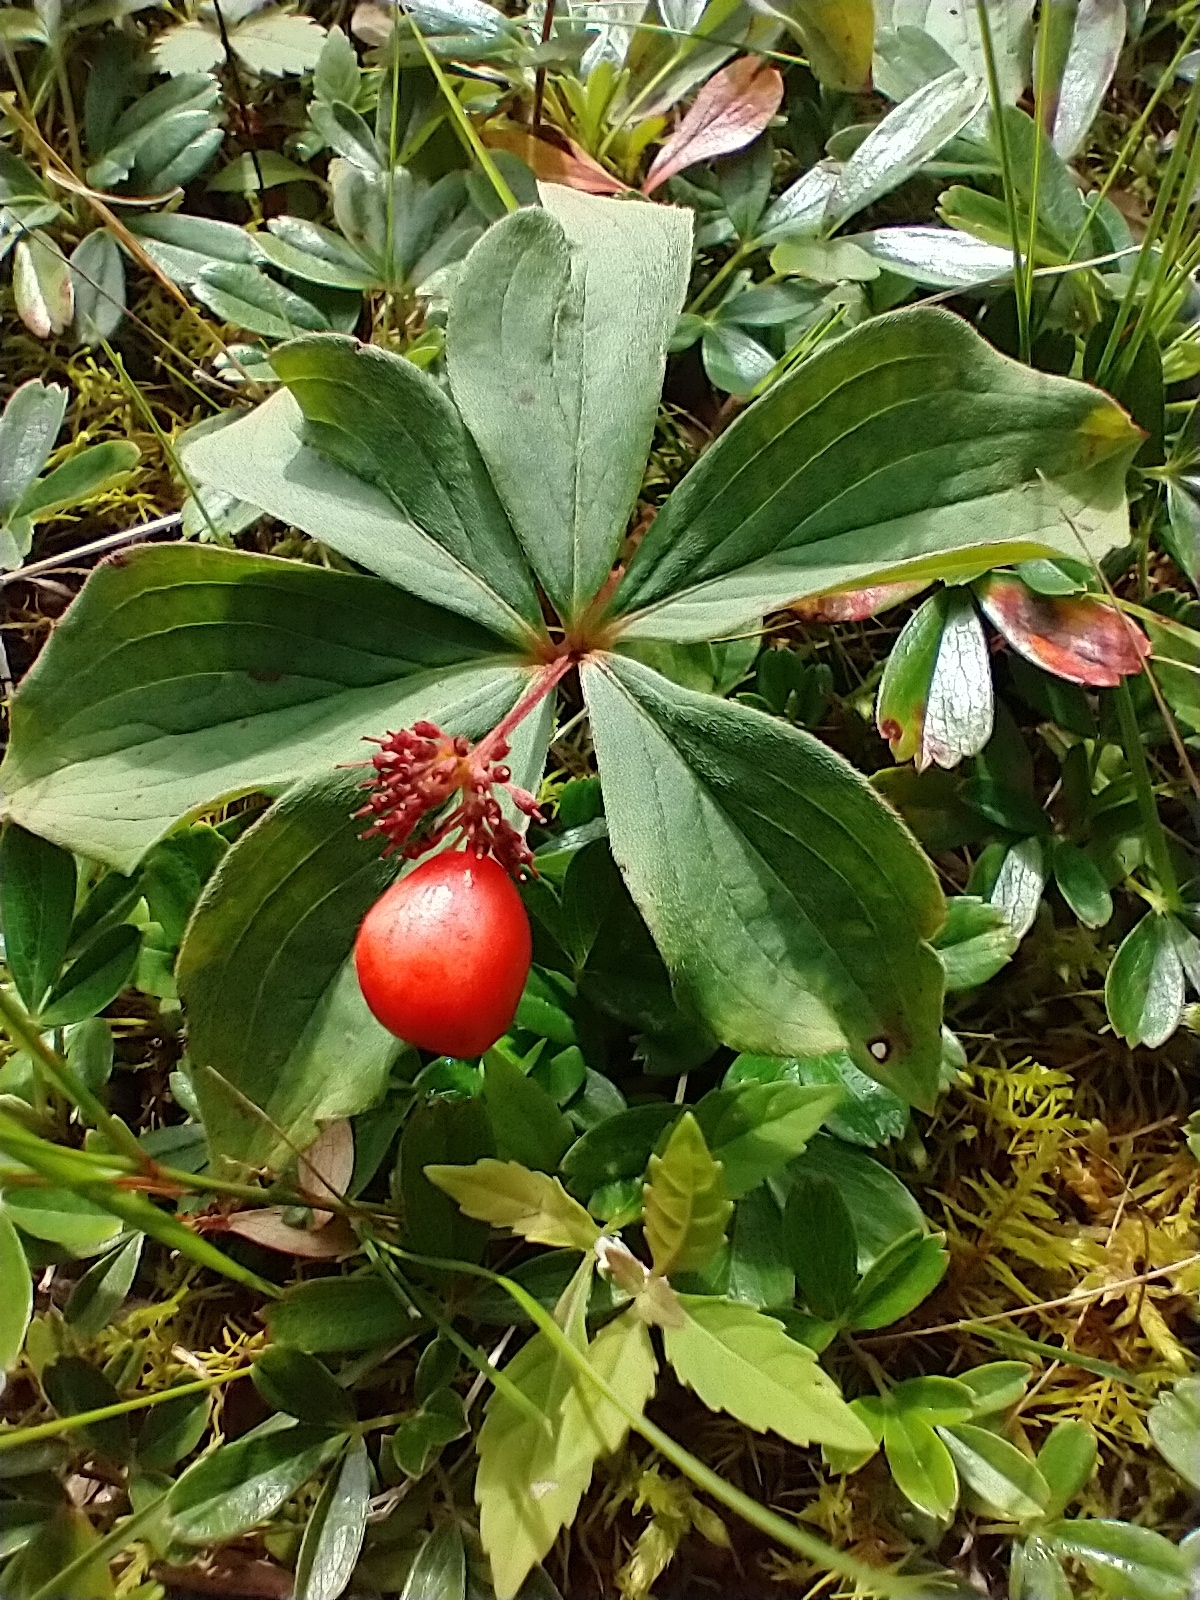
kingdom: Plantae
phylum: Tracheophyta
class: Magnoliopsida
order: Cornales
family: Cornaceae
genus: Cornus
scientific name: Cornus canadensis
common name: Creeping dogwood
